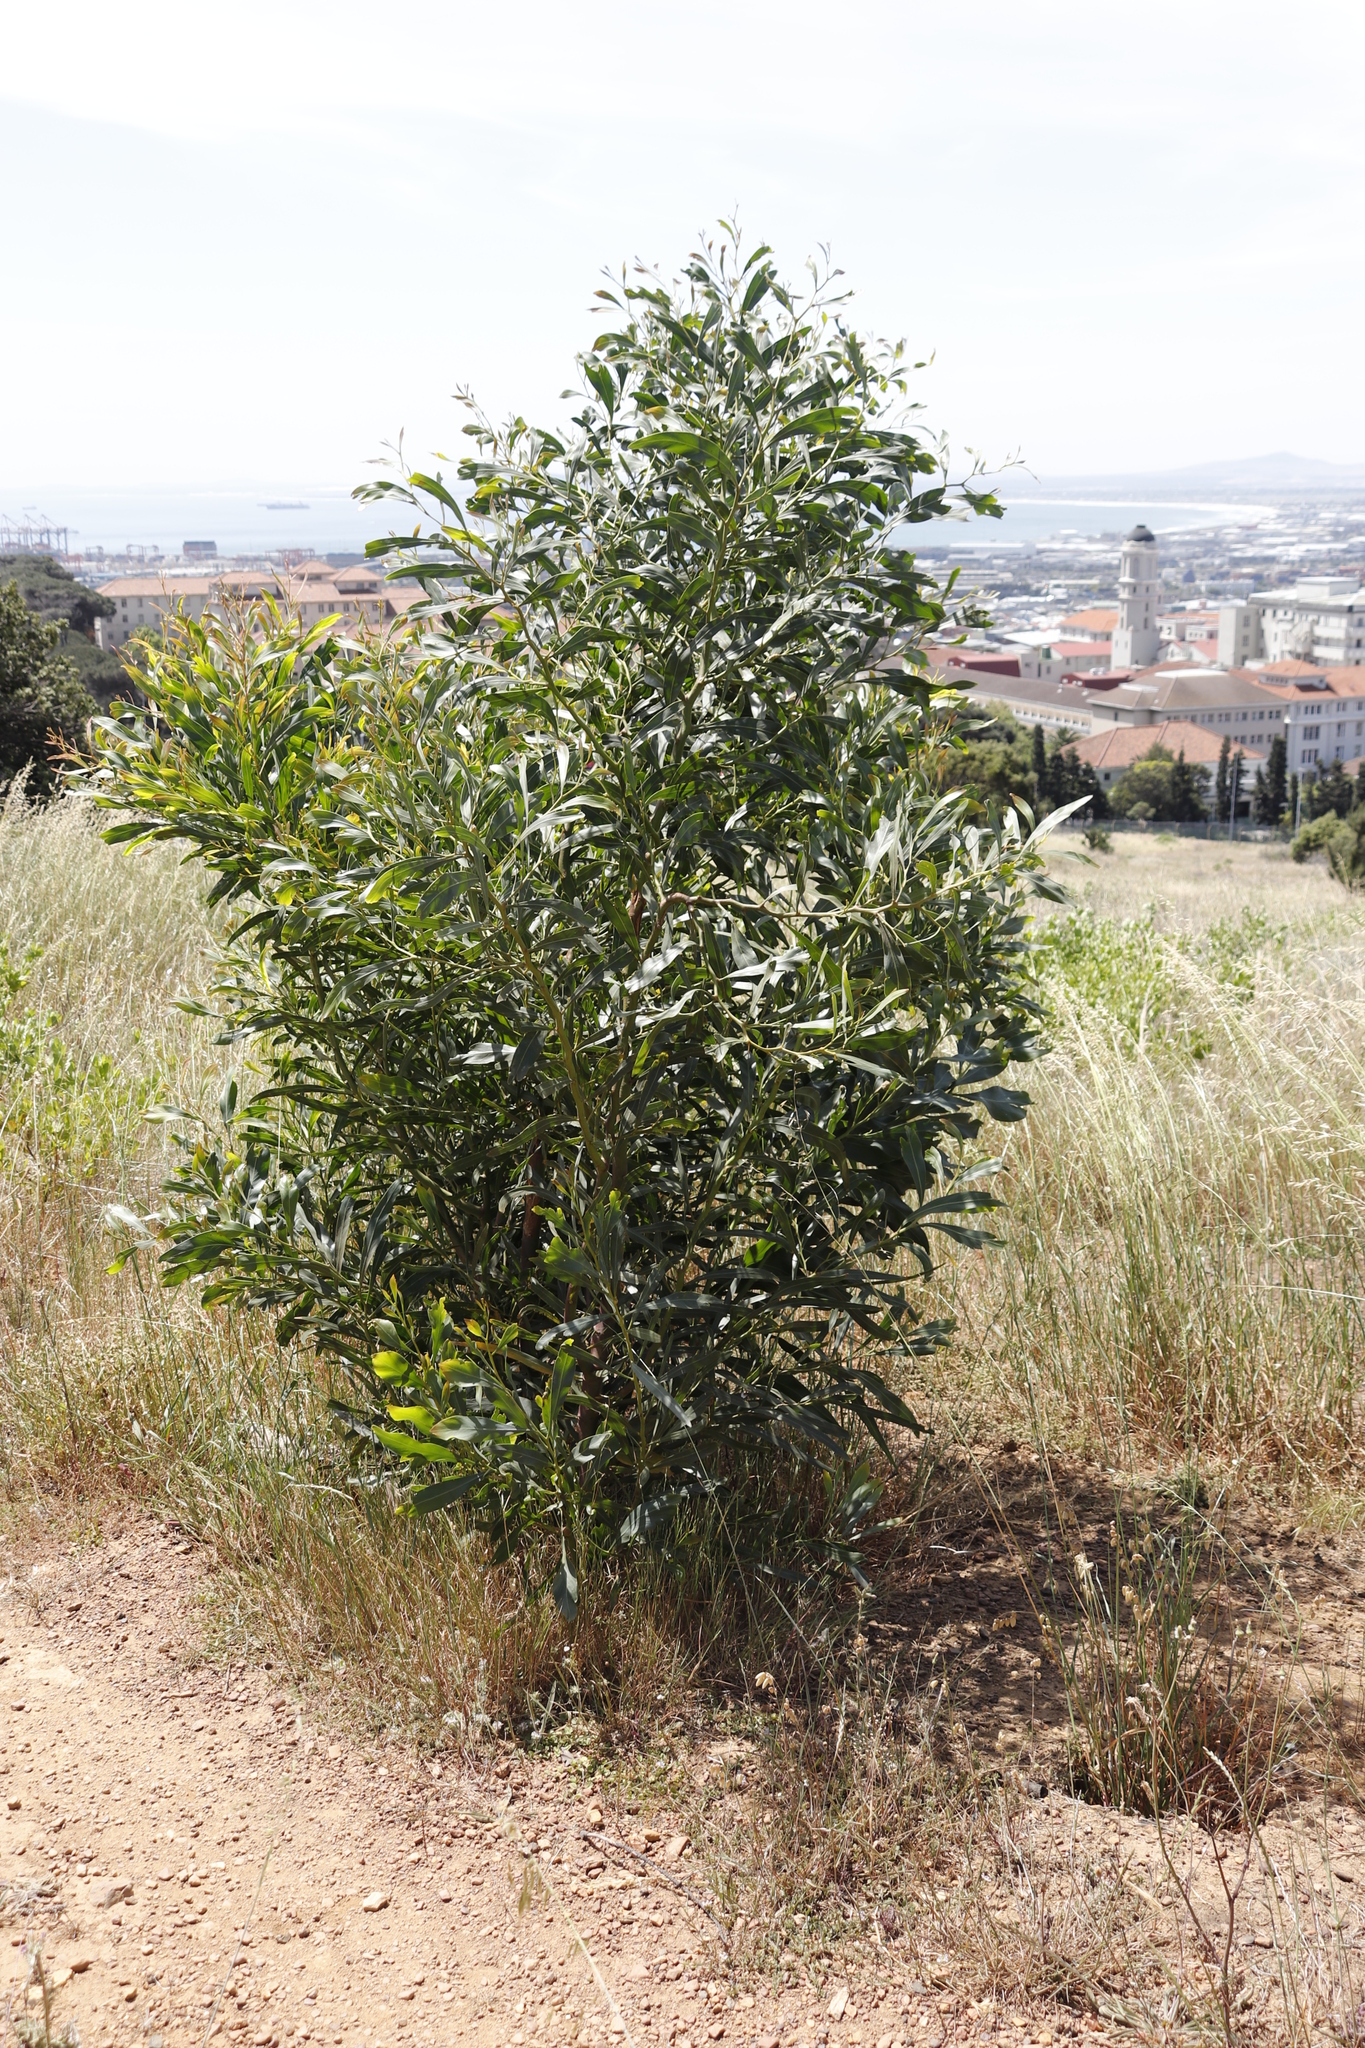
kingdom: Plantae
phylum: Tracheophyta
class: Magnoliopsida
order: Fabales
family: Fabaceae
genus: Acacia
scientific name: Acacia saligna
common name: Orange wattle
